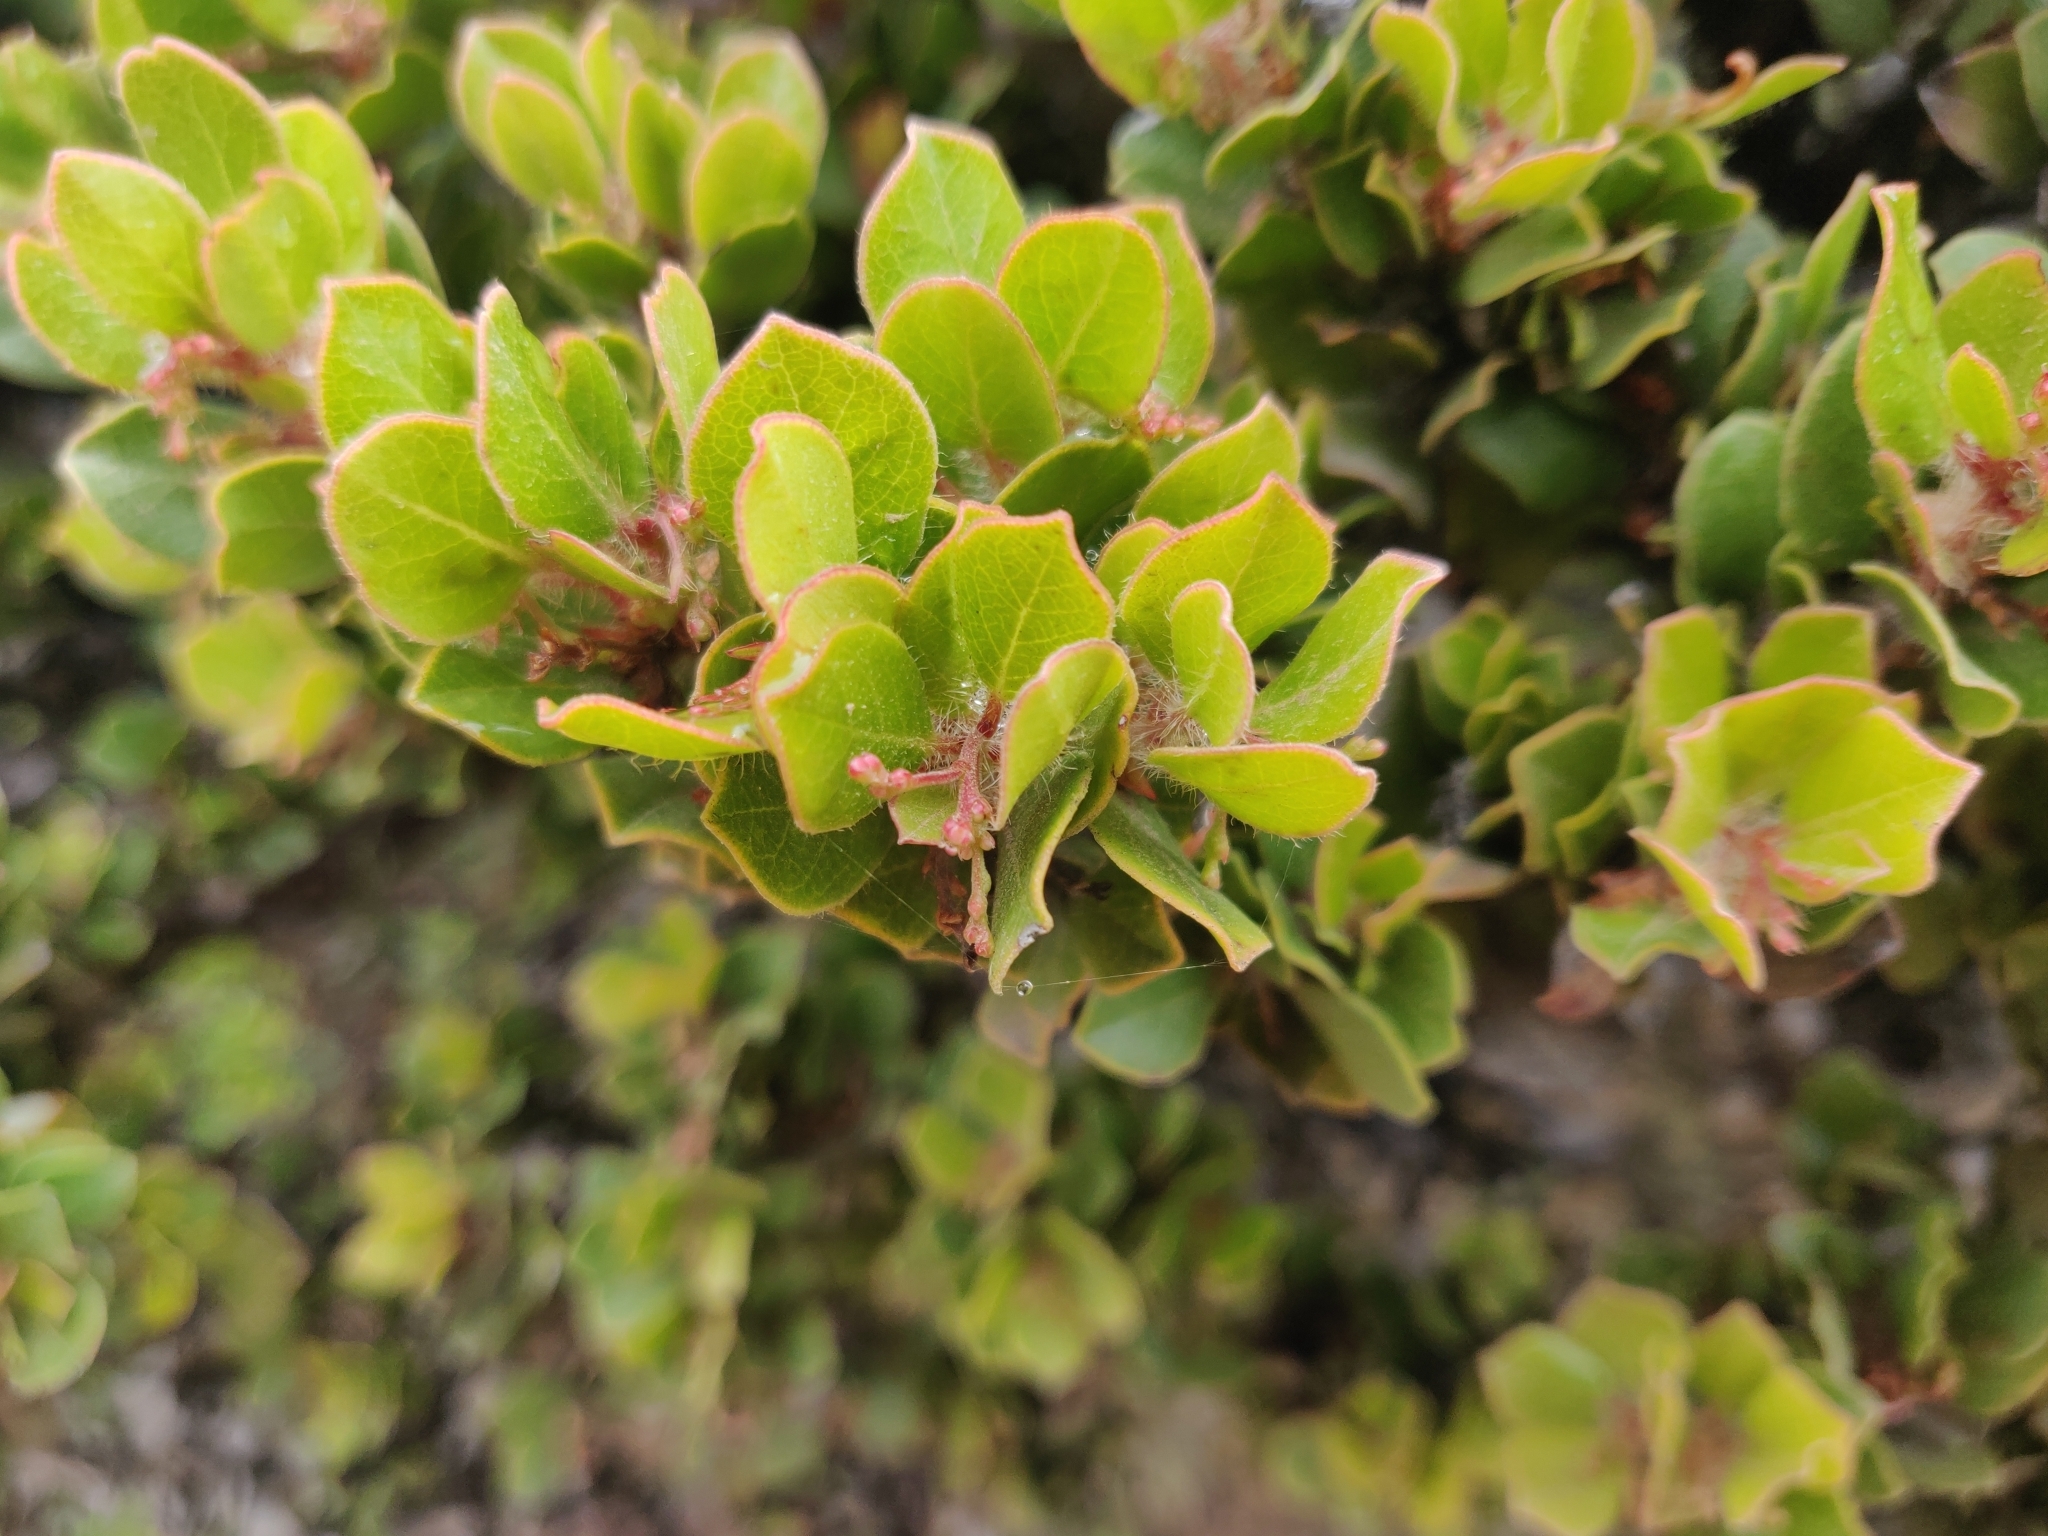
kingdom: Plantae
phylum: Tracheophyta
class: Magnoliopsida
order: Ericales
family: Ericaceae
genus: Arctostaphylos
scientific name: Arctostaphylos nummularia
